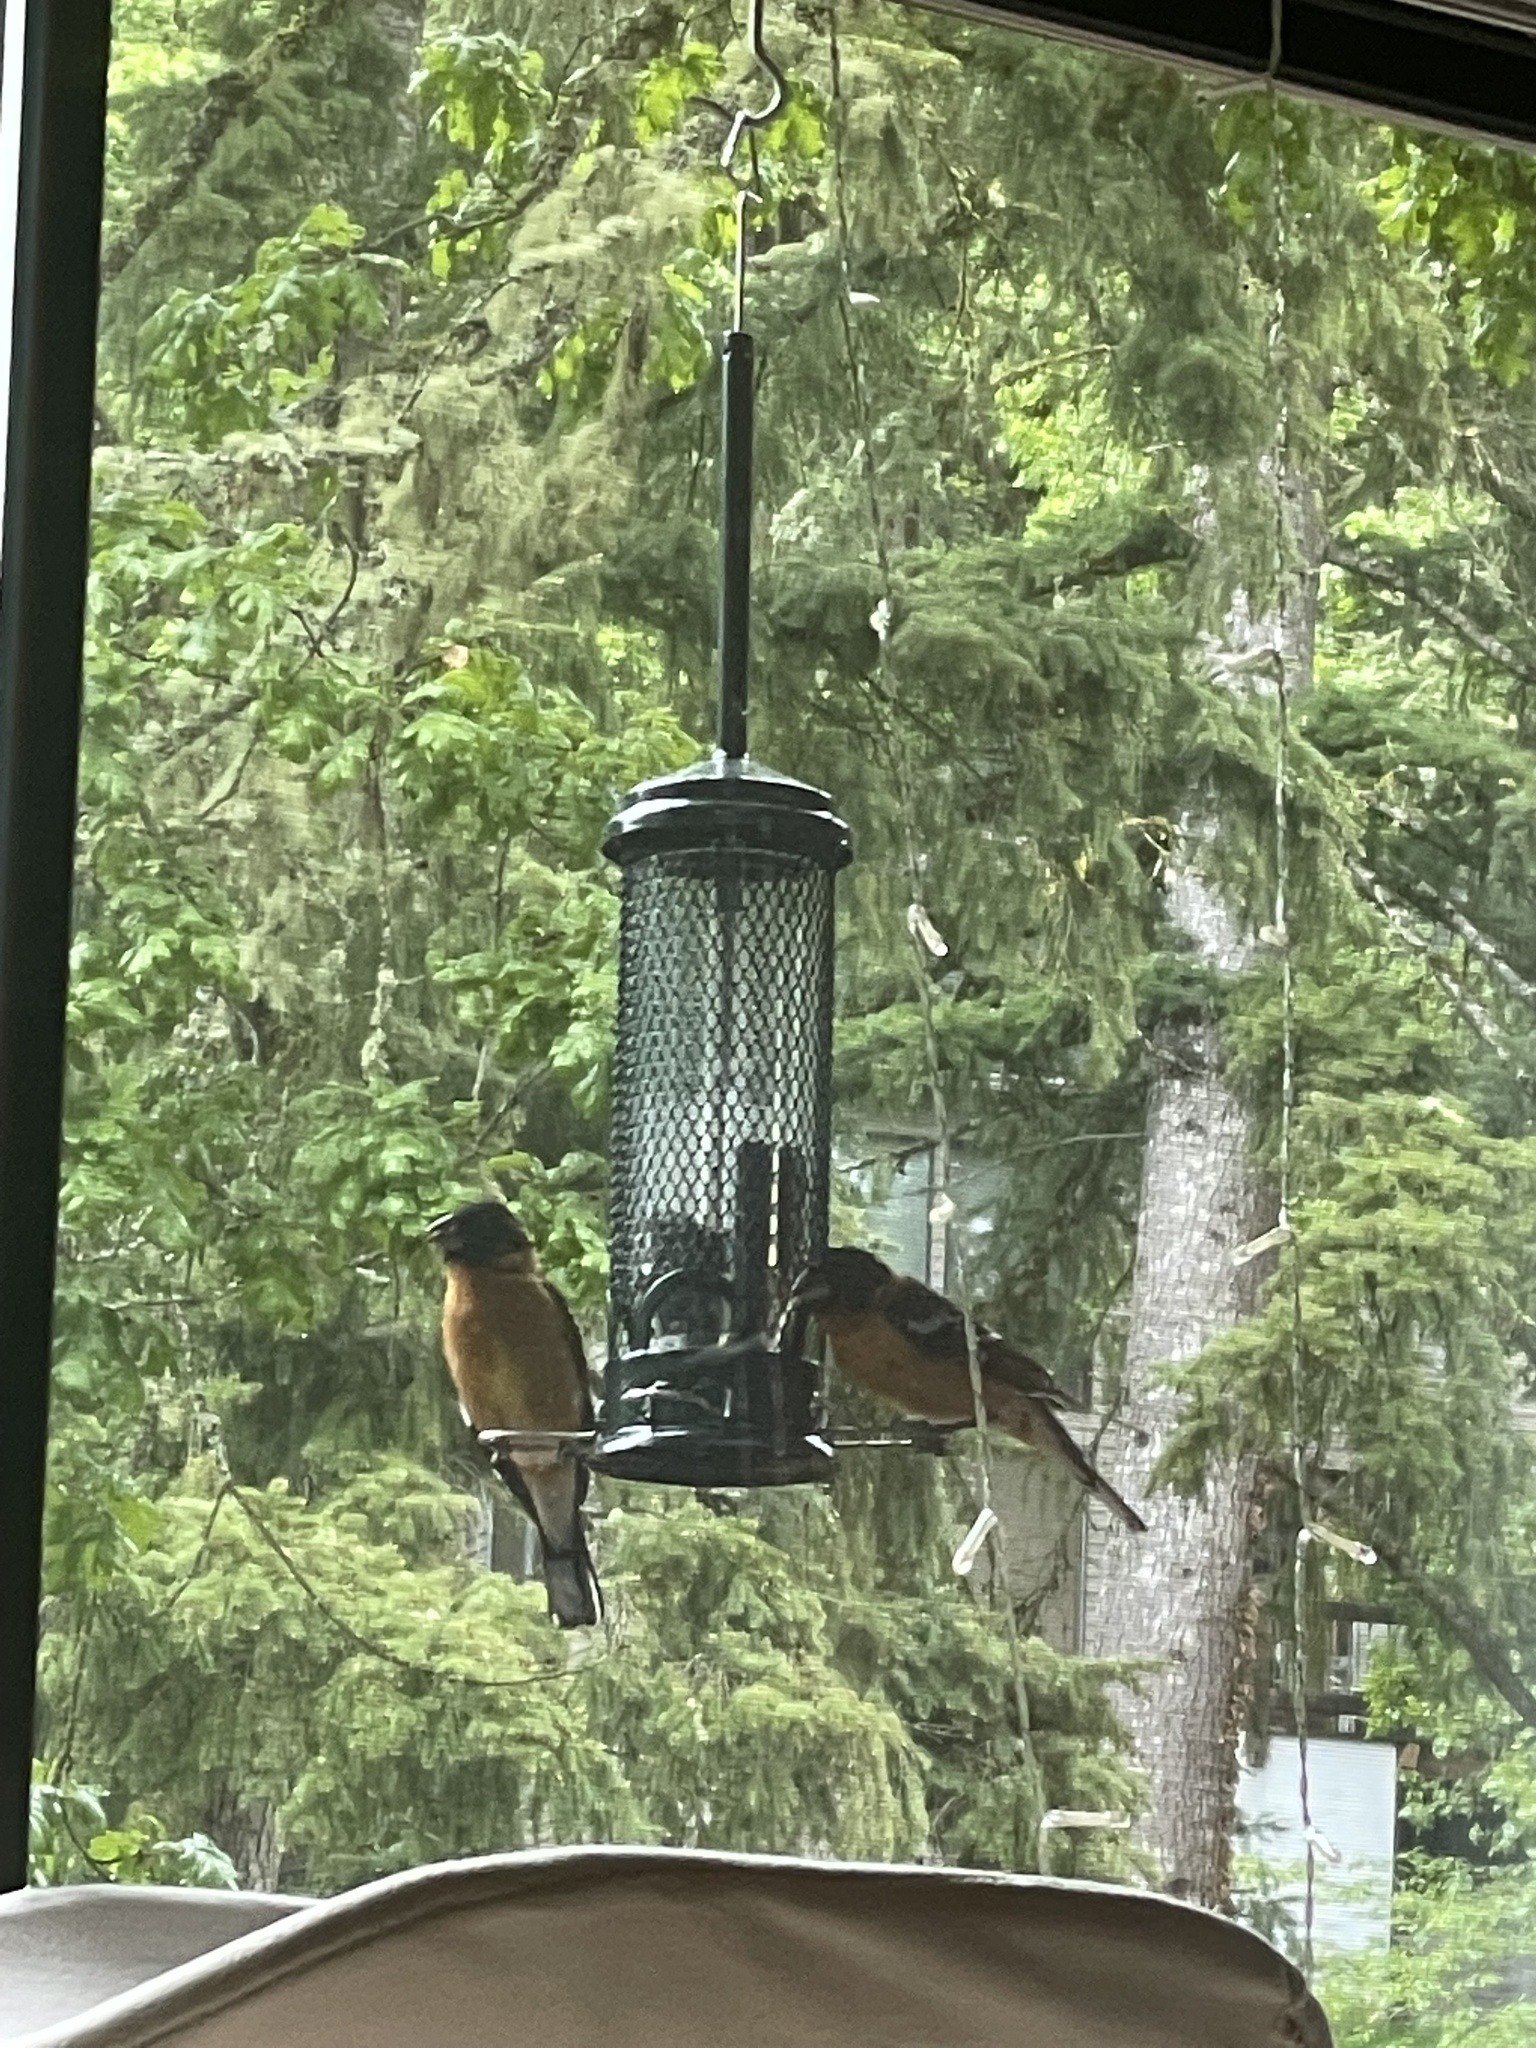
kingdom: Animalia
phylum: Chordata
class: Aves
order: Passeriformes
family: Cardinalidae
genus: Pheucticus
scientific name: Pheucticus melanocephalus
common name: Black-headed grosbeak
